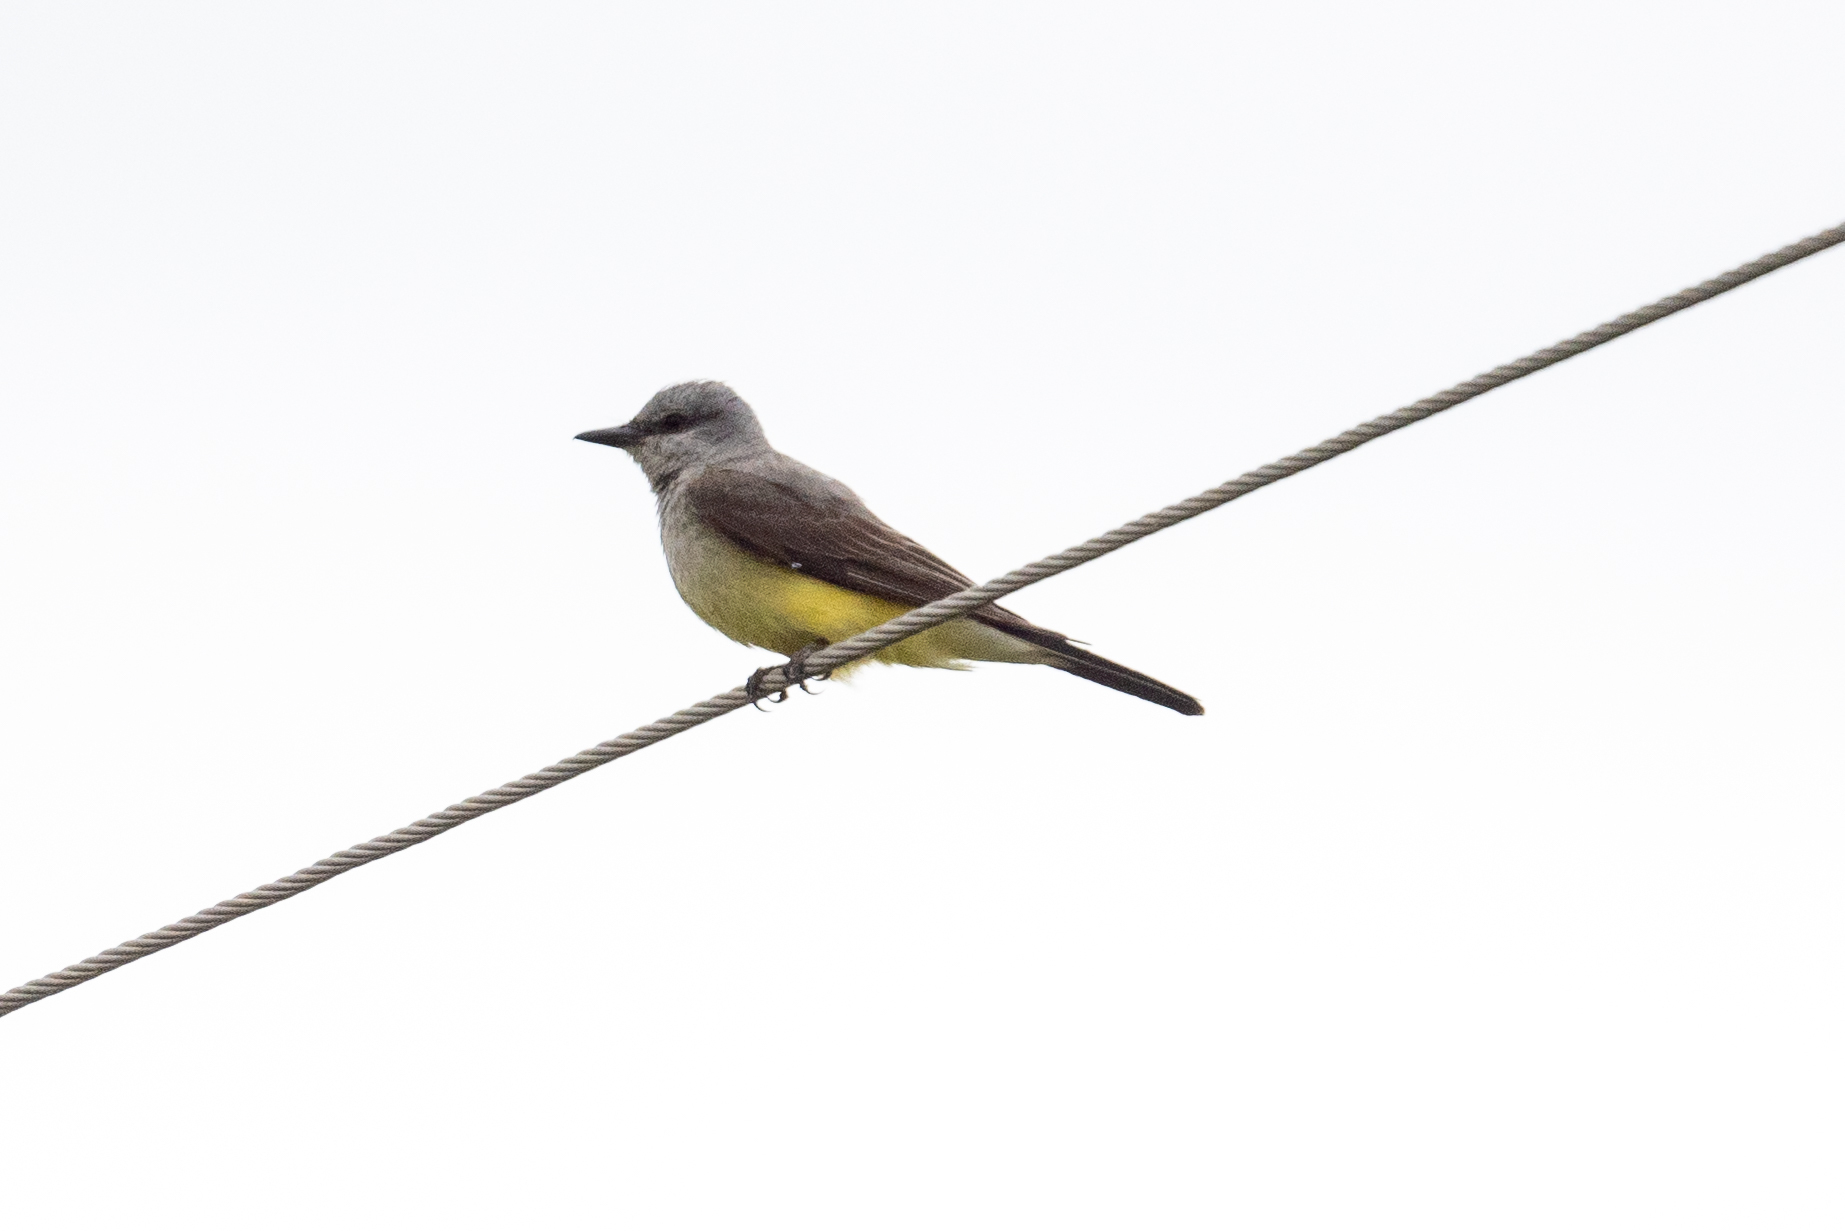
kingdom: Animalia
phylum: Chordata
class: Aves
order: Passeriformes
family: Tyrannidae
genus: Tyrannus
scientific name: Tyrannus verticalis
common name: Western kingbird
